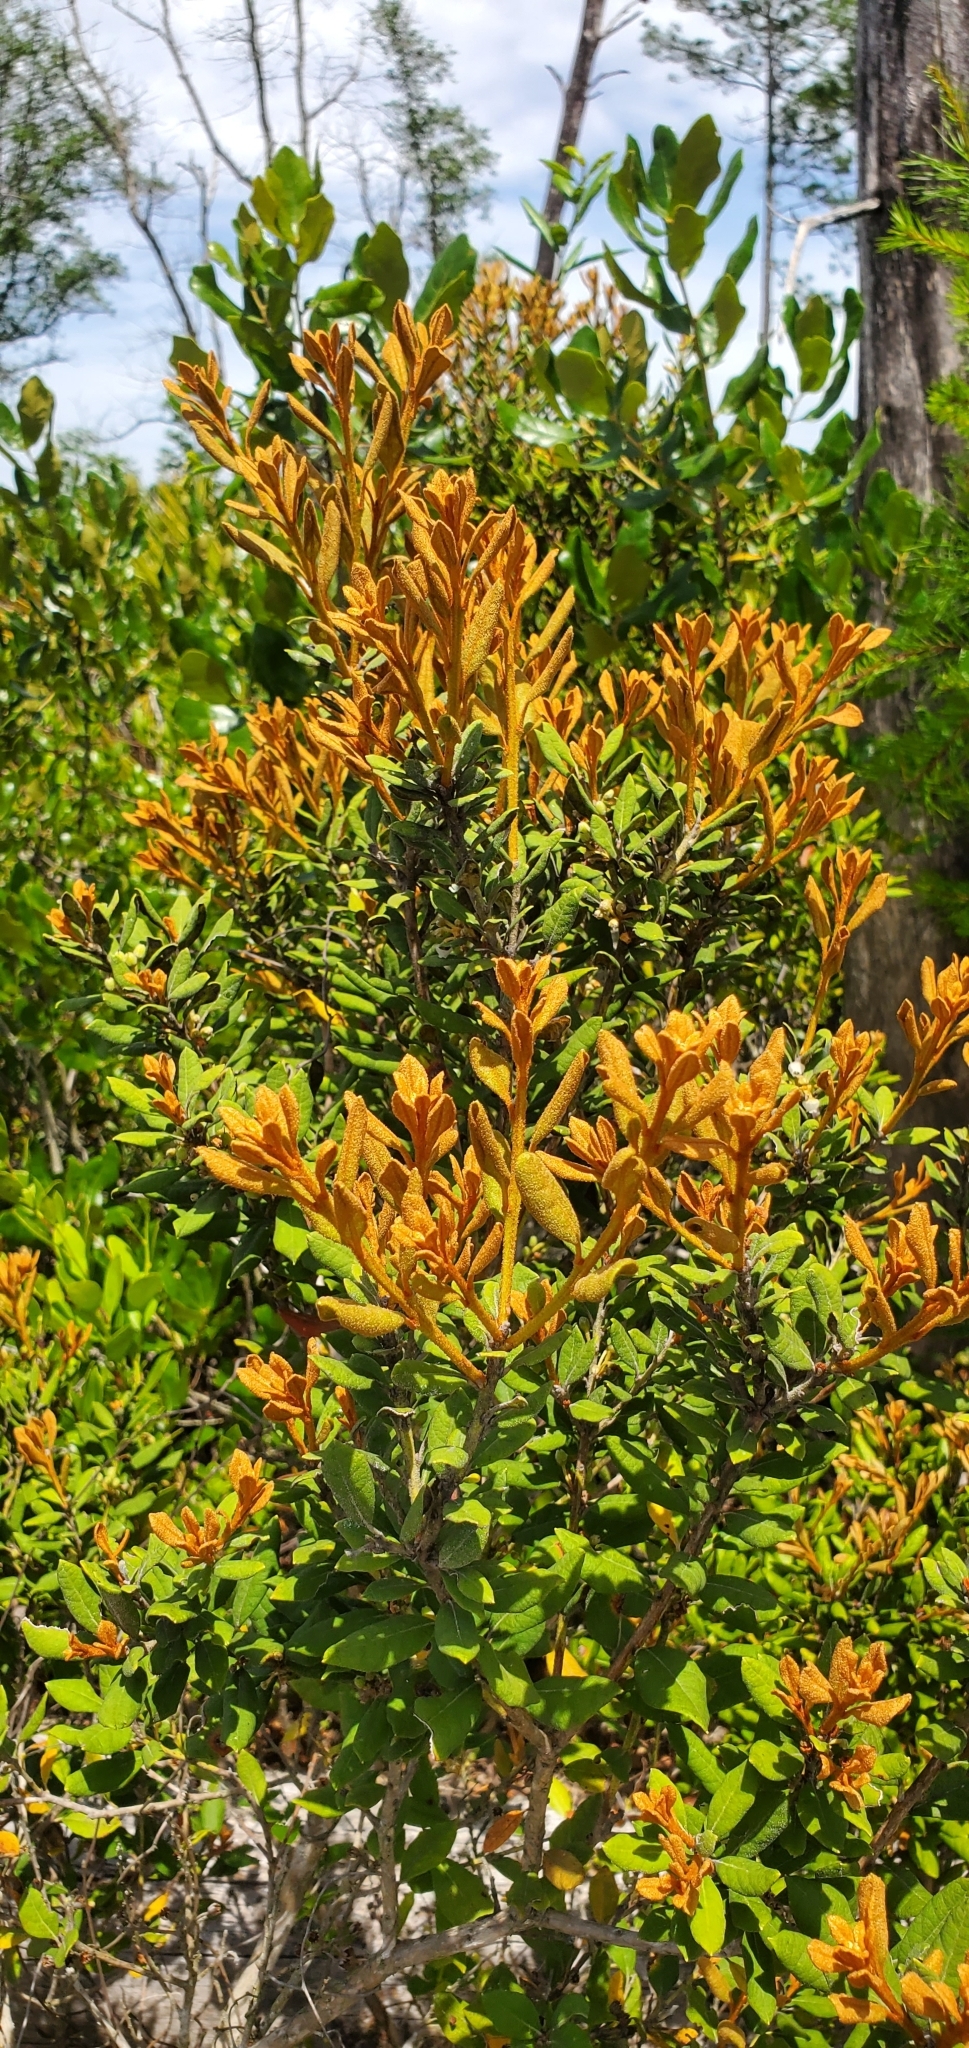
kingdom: Plantae
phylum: Tracheophyta
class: Magnoliopsida
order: Ericales
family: Ericaceae
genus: Lyonia
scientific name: Lyonia ferruginea
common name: Rusty lyonia
